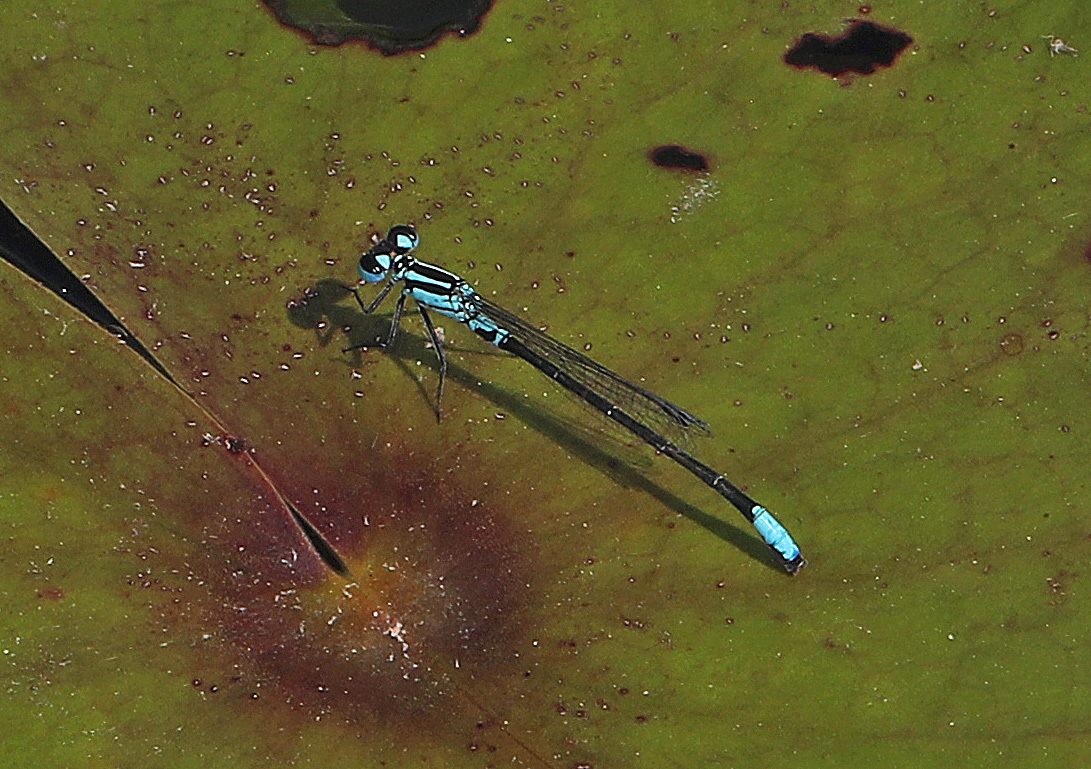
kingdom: Animalia
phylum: Arthropoda
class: Insecta
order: Odonata
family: Coenagrionidae
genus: Ischnura
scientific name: Ischnura kellicotti
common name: Lilypad forktail
